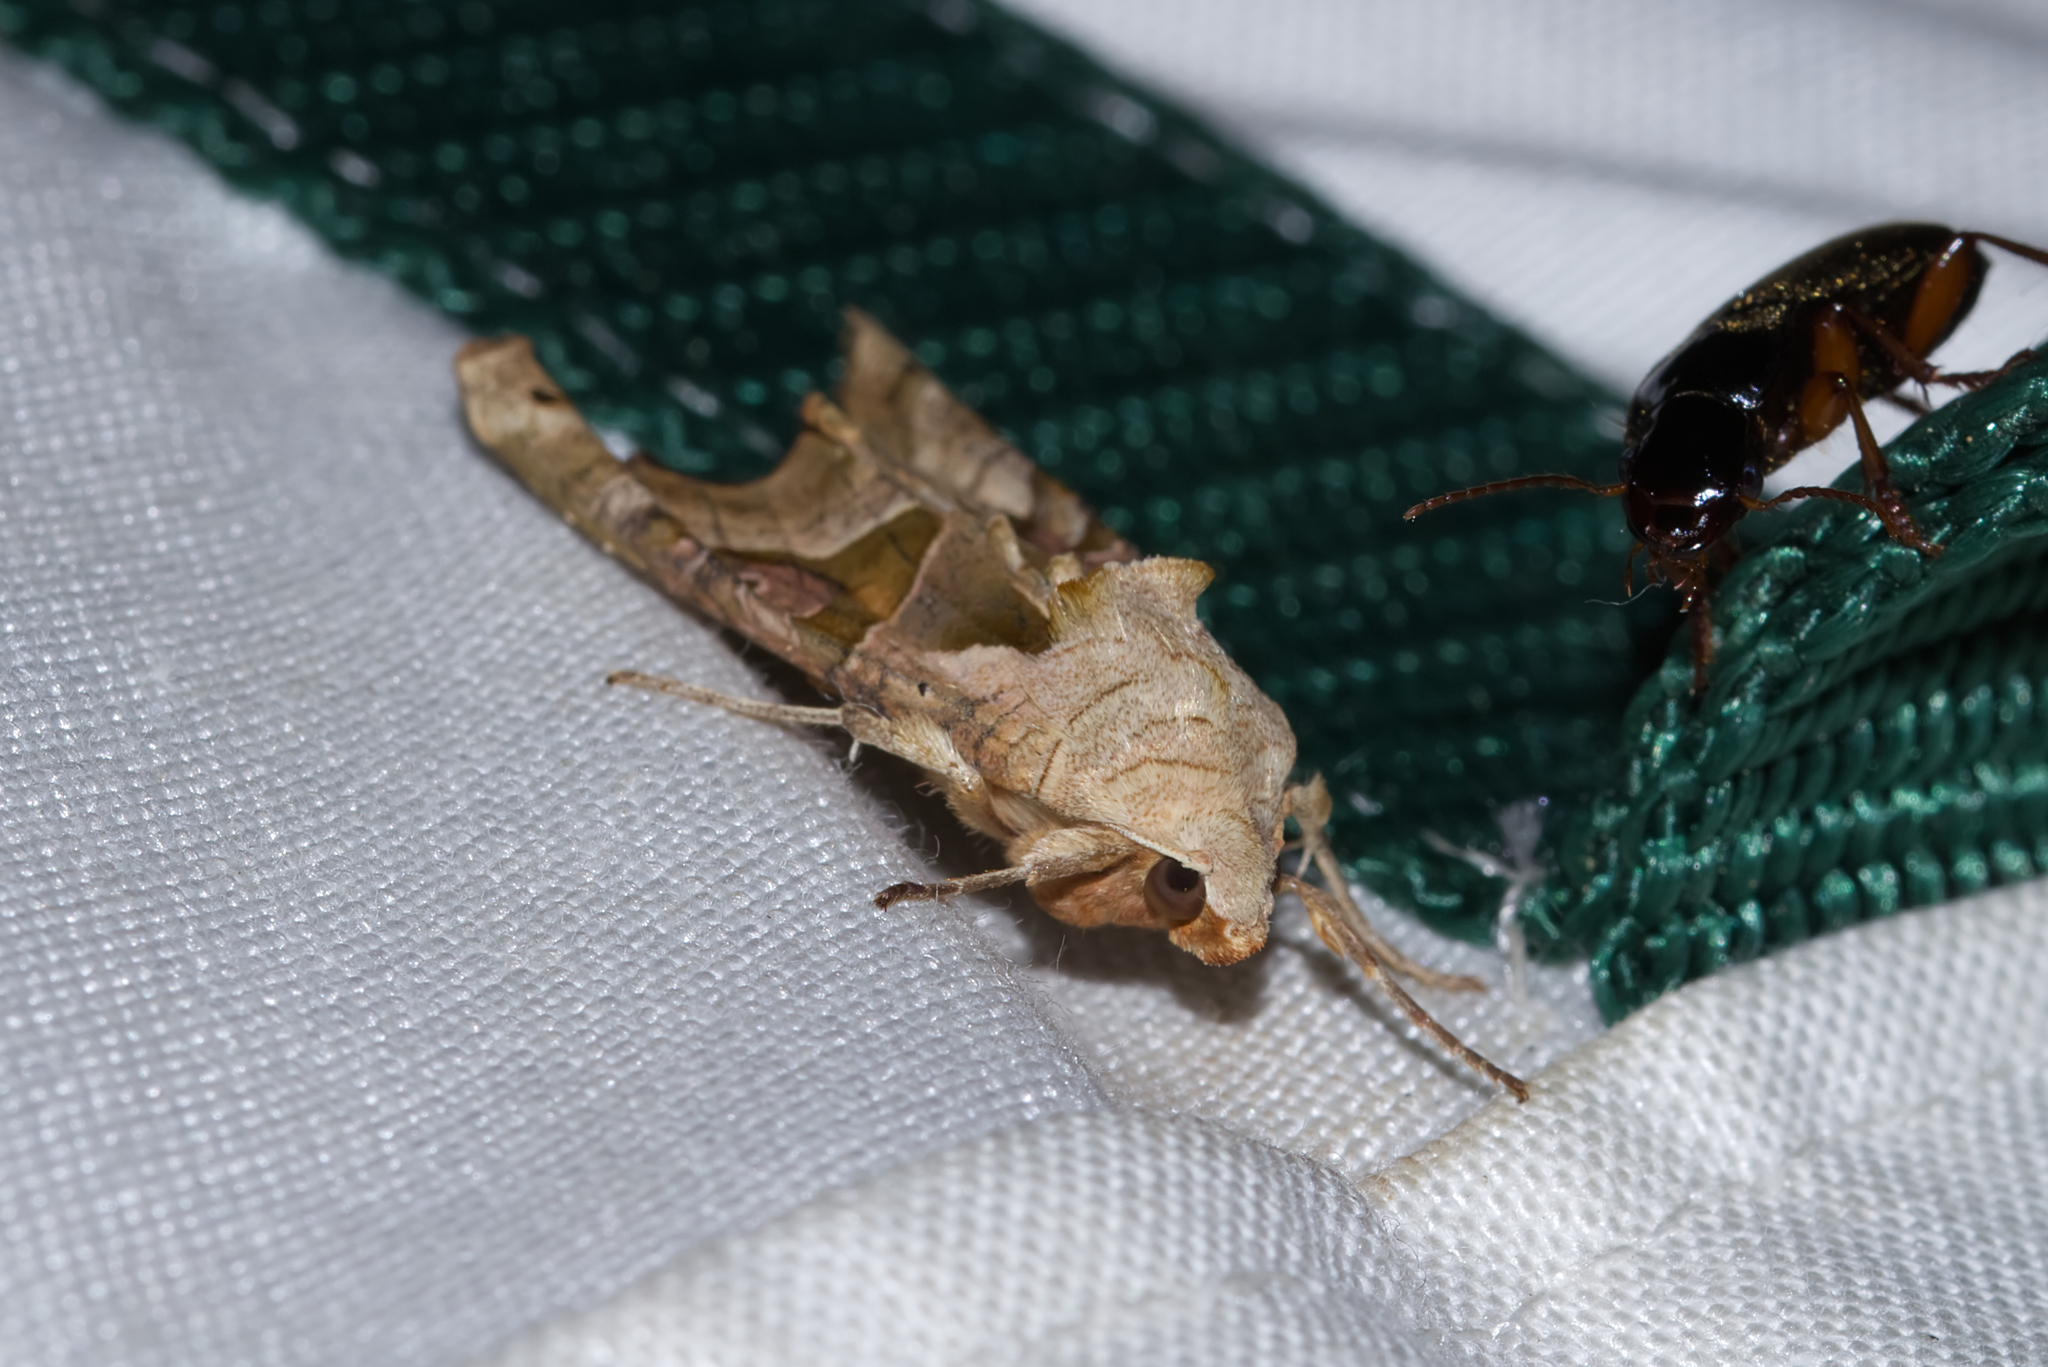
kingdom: Animalia
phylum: Arthropoda
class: Insecta
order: Lepidoptera
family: Noctuidae
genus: Phlogophora
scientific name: Phlogophora meticulosa
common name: Angle shades
